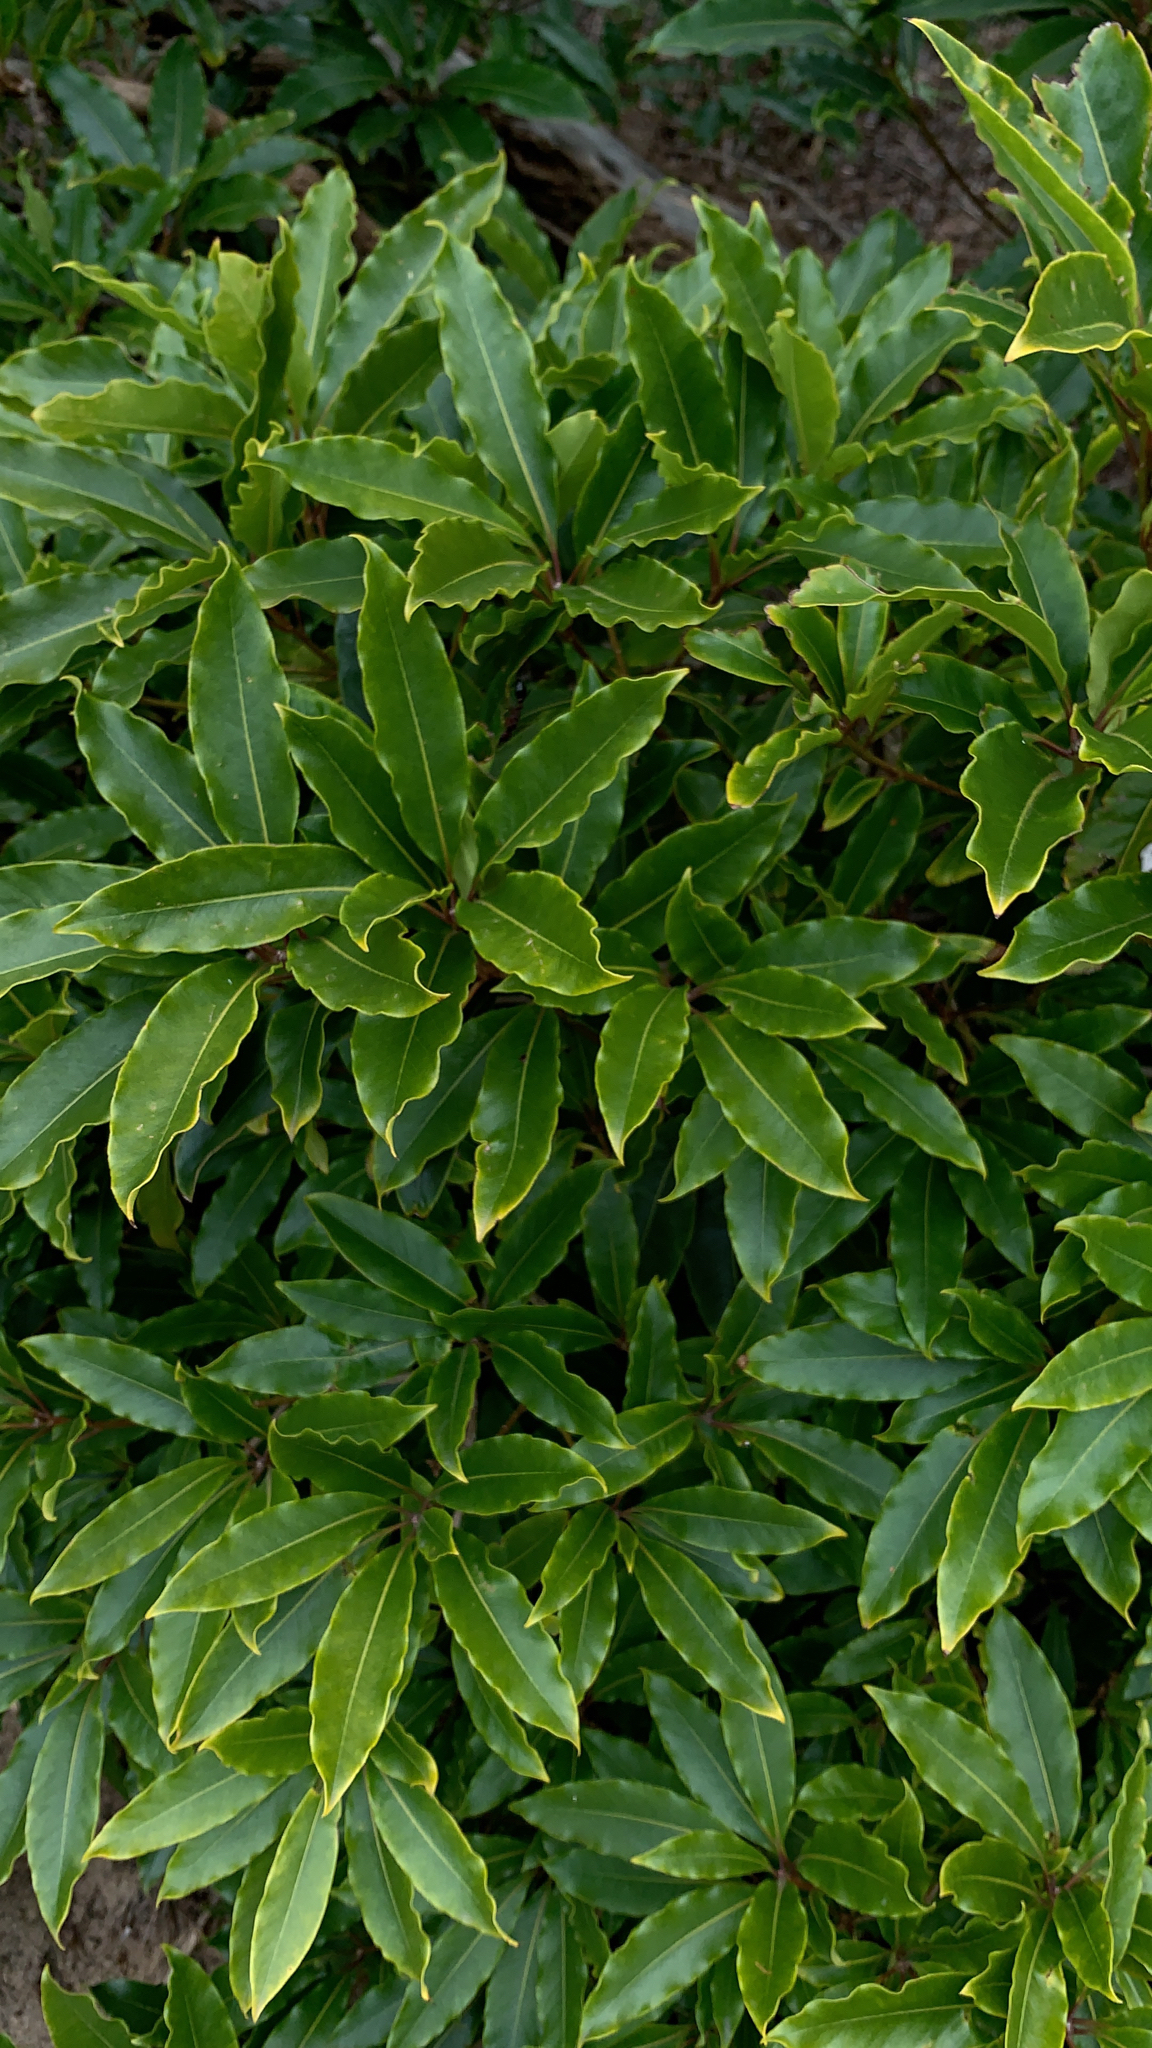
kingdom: Plantae
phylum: Tracheophyta
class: Magnoliopsida
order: Apiales
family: Pittosporaceae
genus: Pittosporum
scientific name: Pittosporum undulatum
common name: Australian cheesewood
